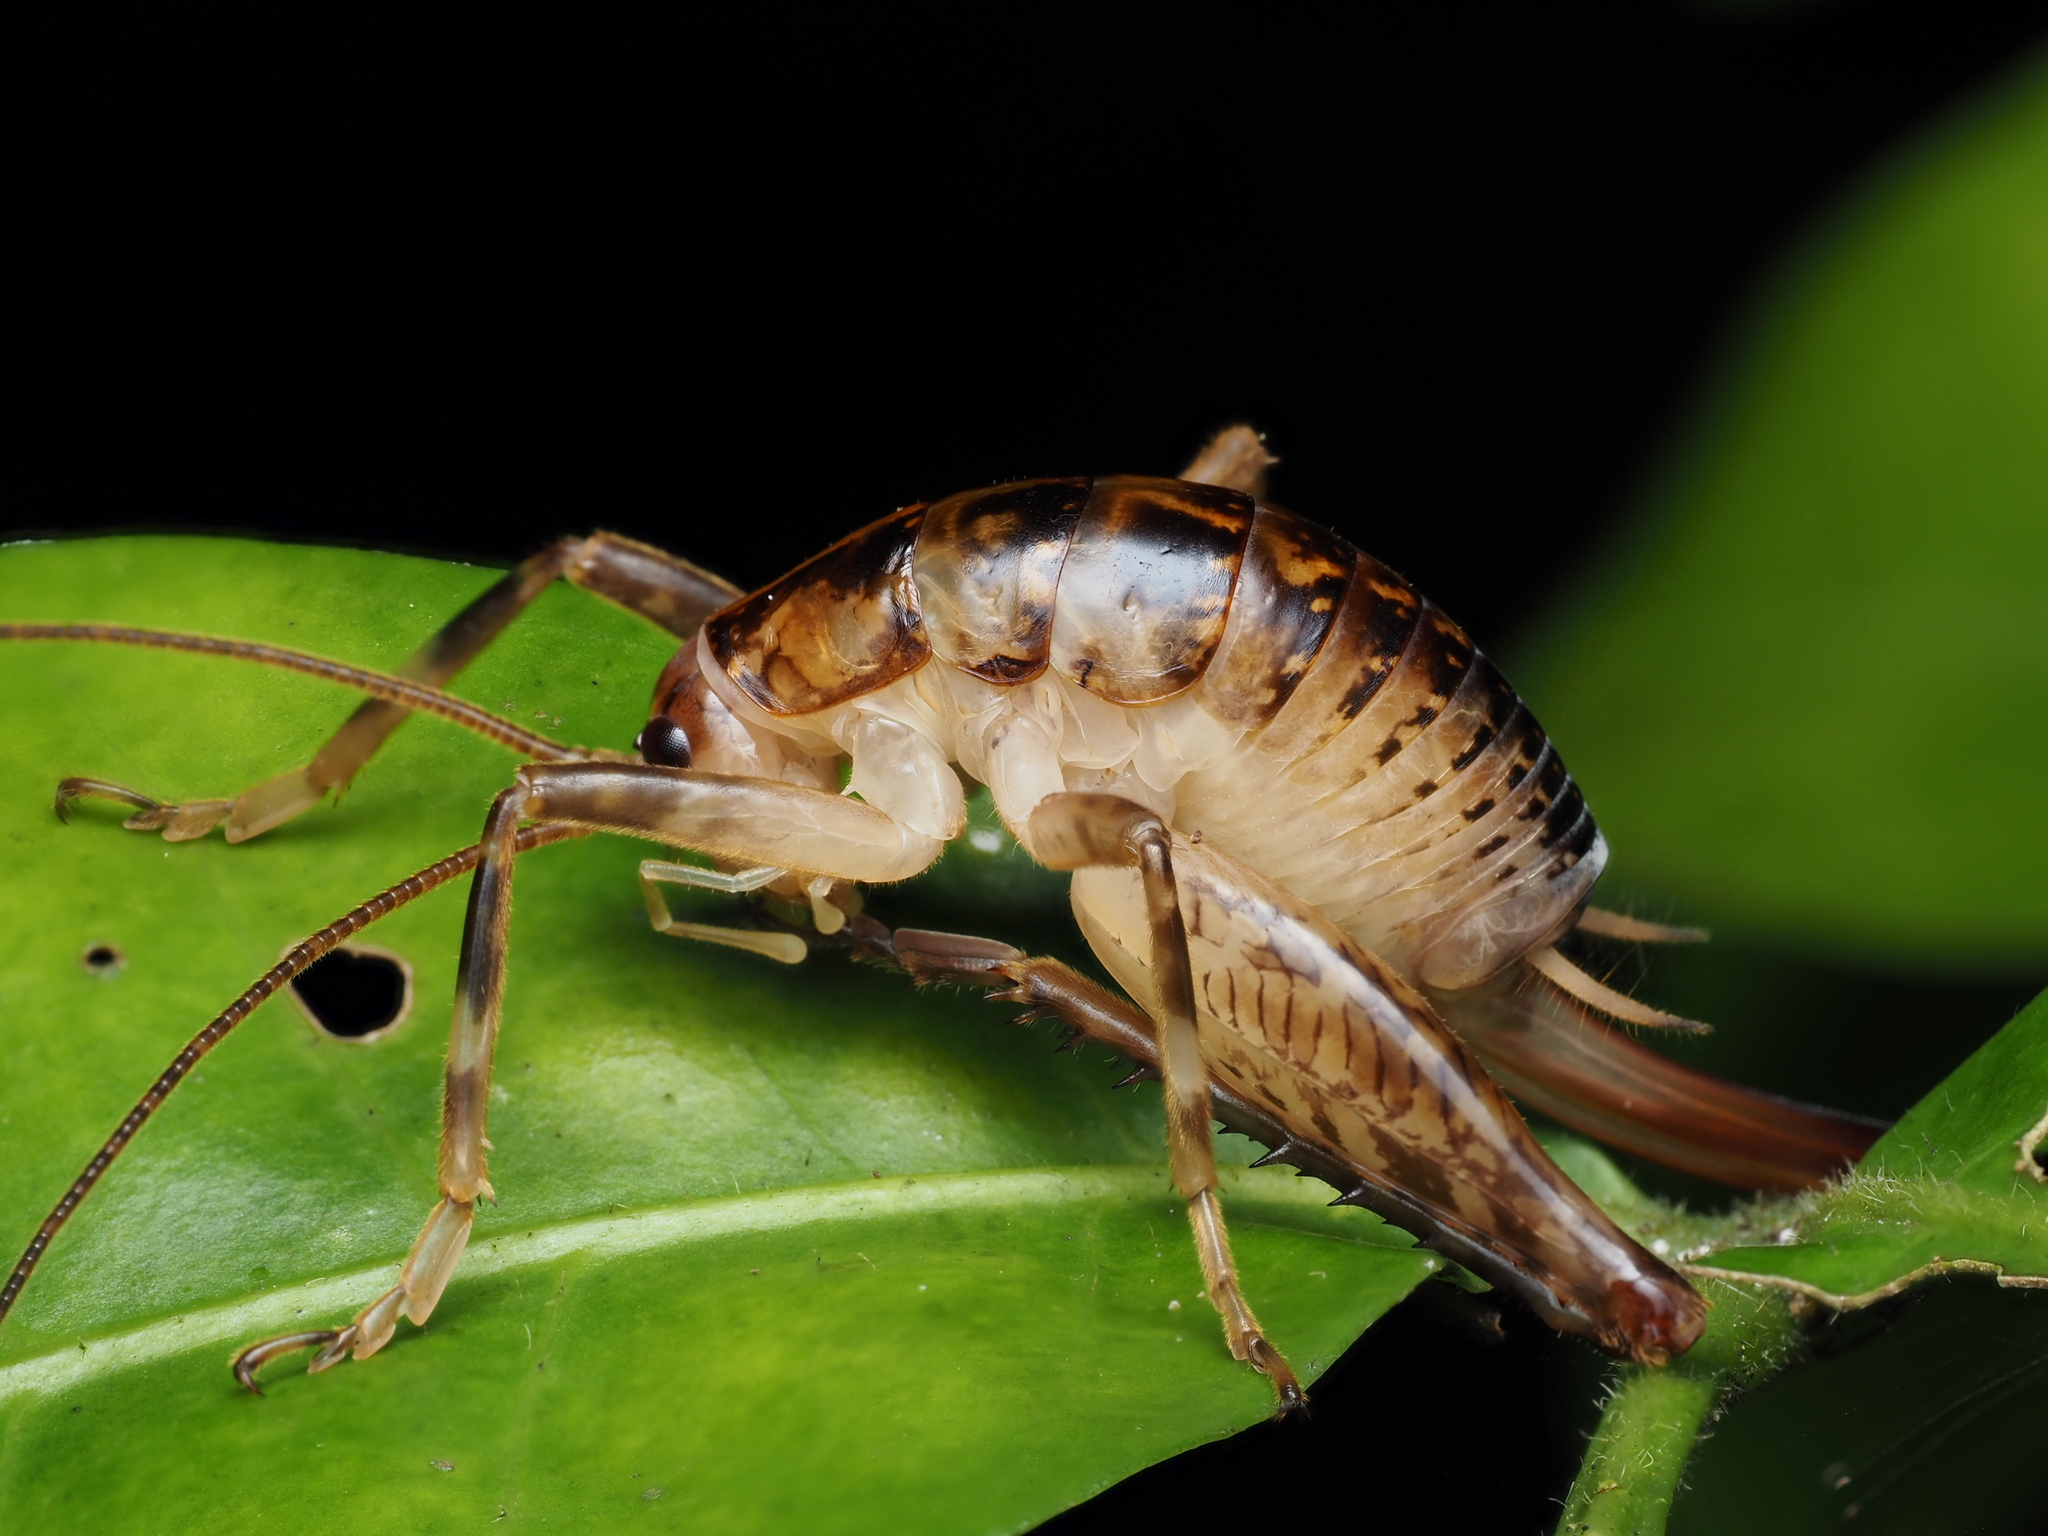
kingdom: Animalia
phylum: Arthropoda
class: Insecta
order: Orthoptera
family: Rhaphidophoridae
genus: Talitropsis
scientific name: Talitropsis sedilloti
